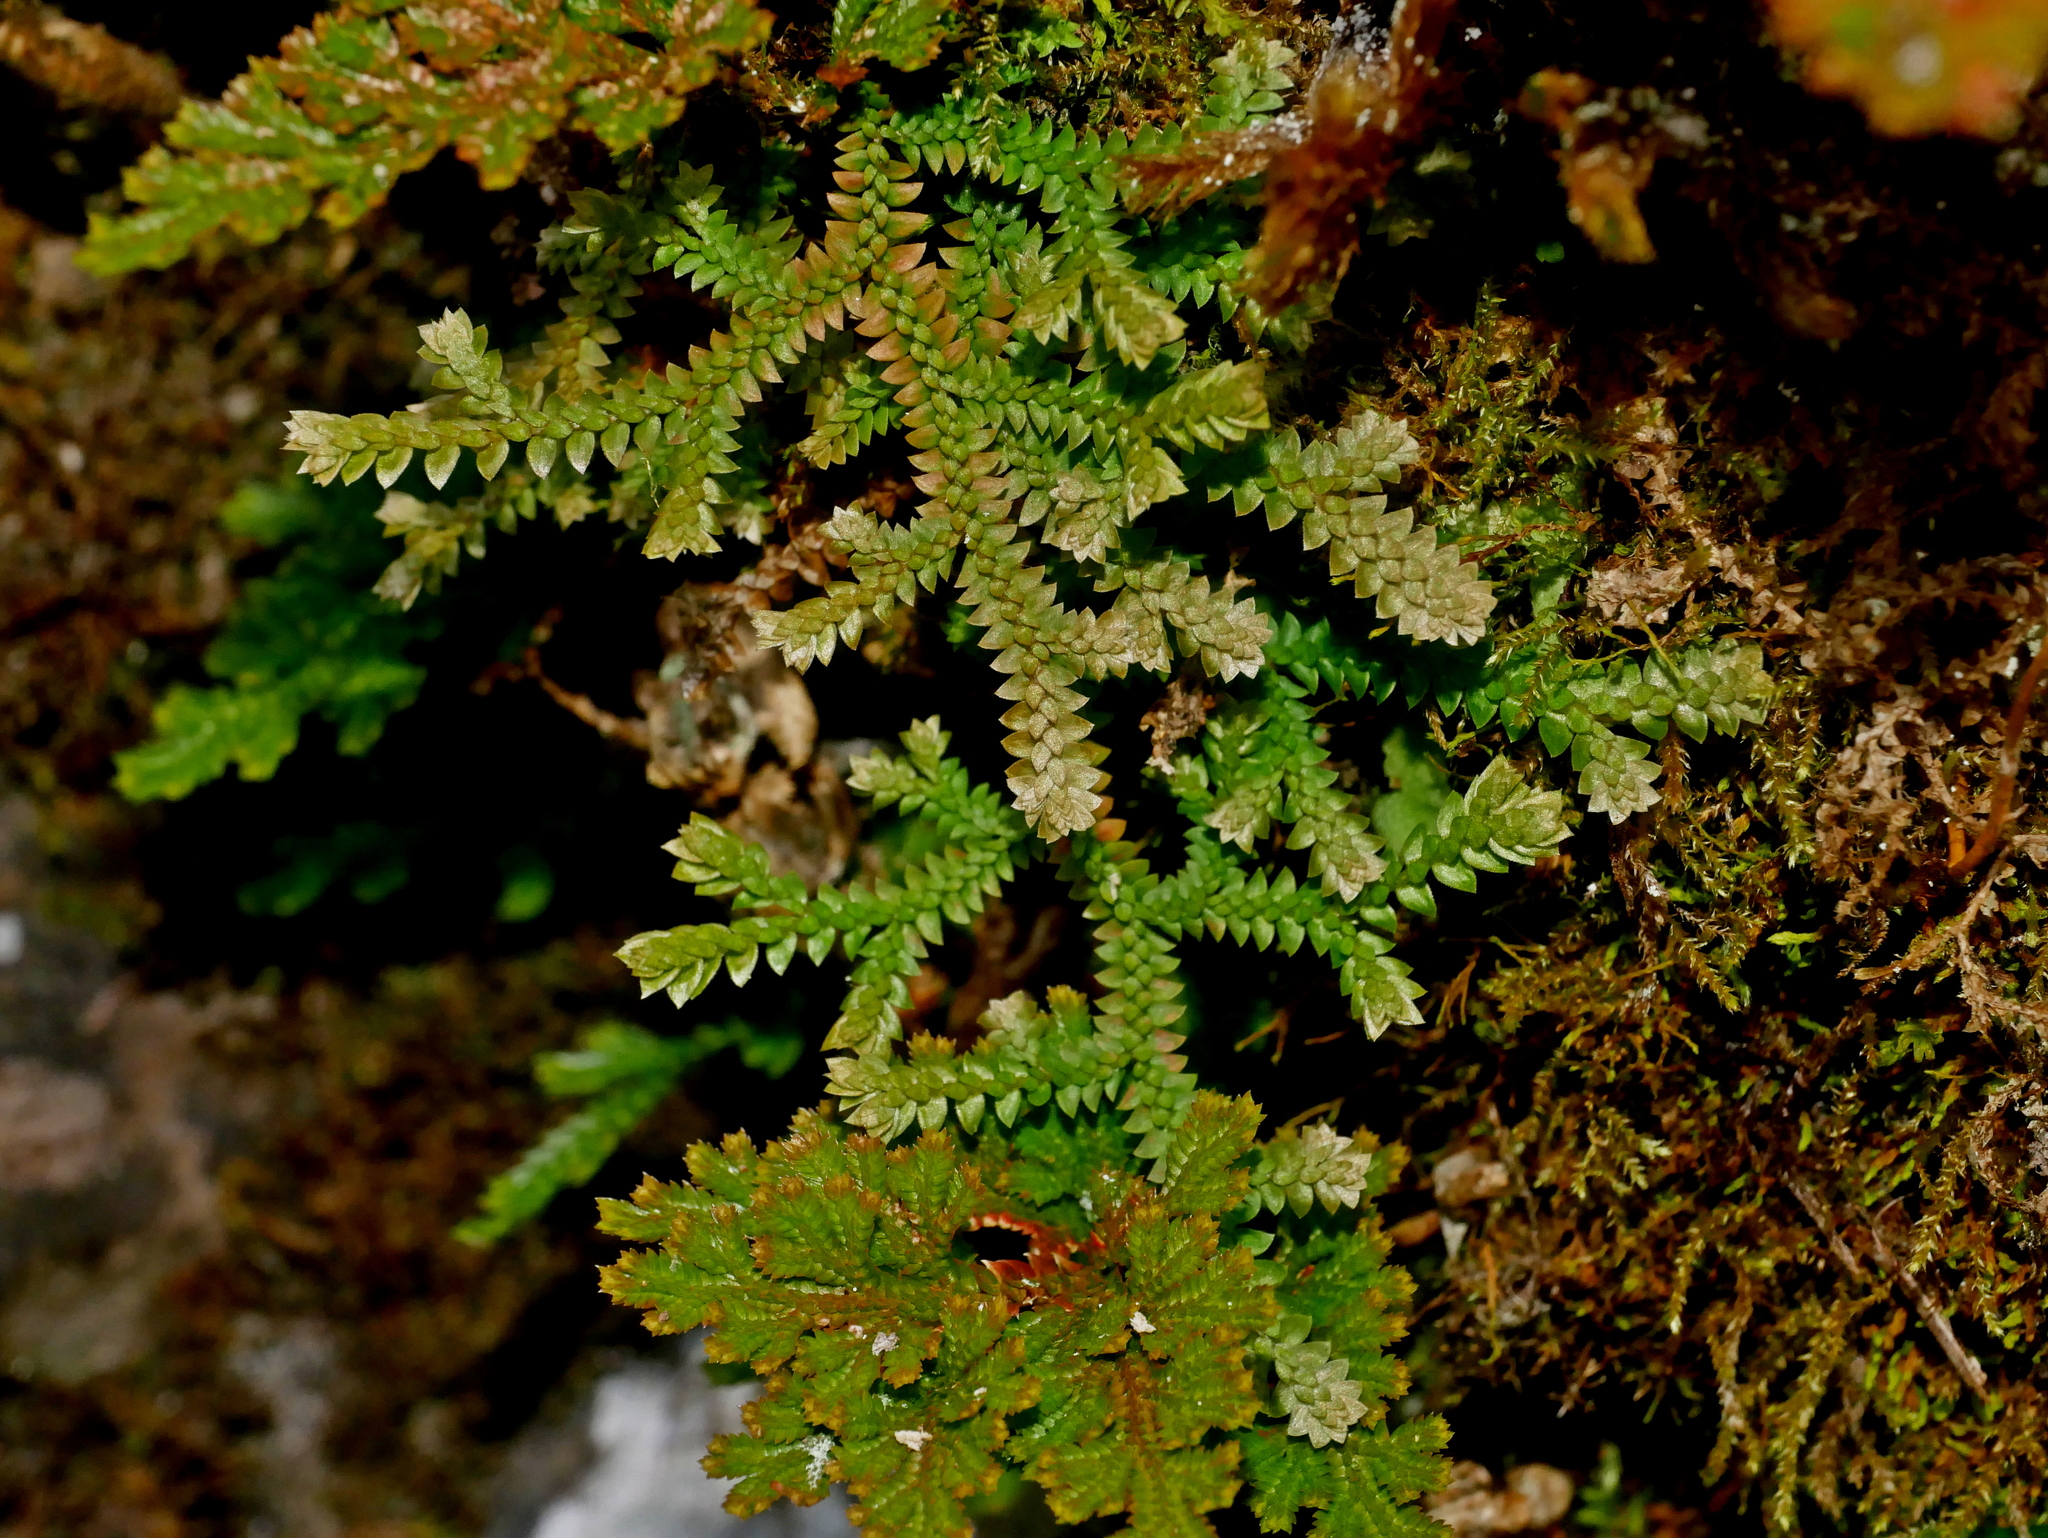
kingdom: Plantae
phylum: Tracheophyta
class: Lycopodiopsida
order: Selaginellales
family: Selaginellaceae
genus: Selaginella
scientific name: Selaginella pseudonipponica
